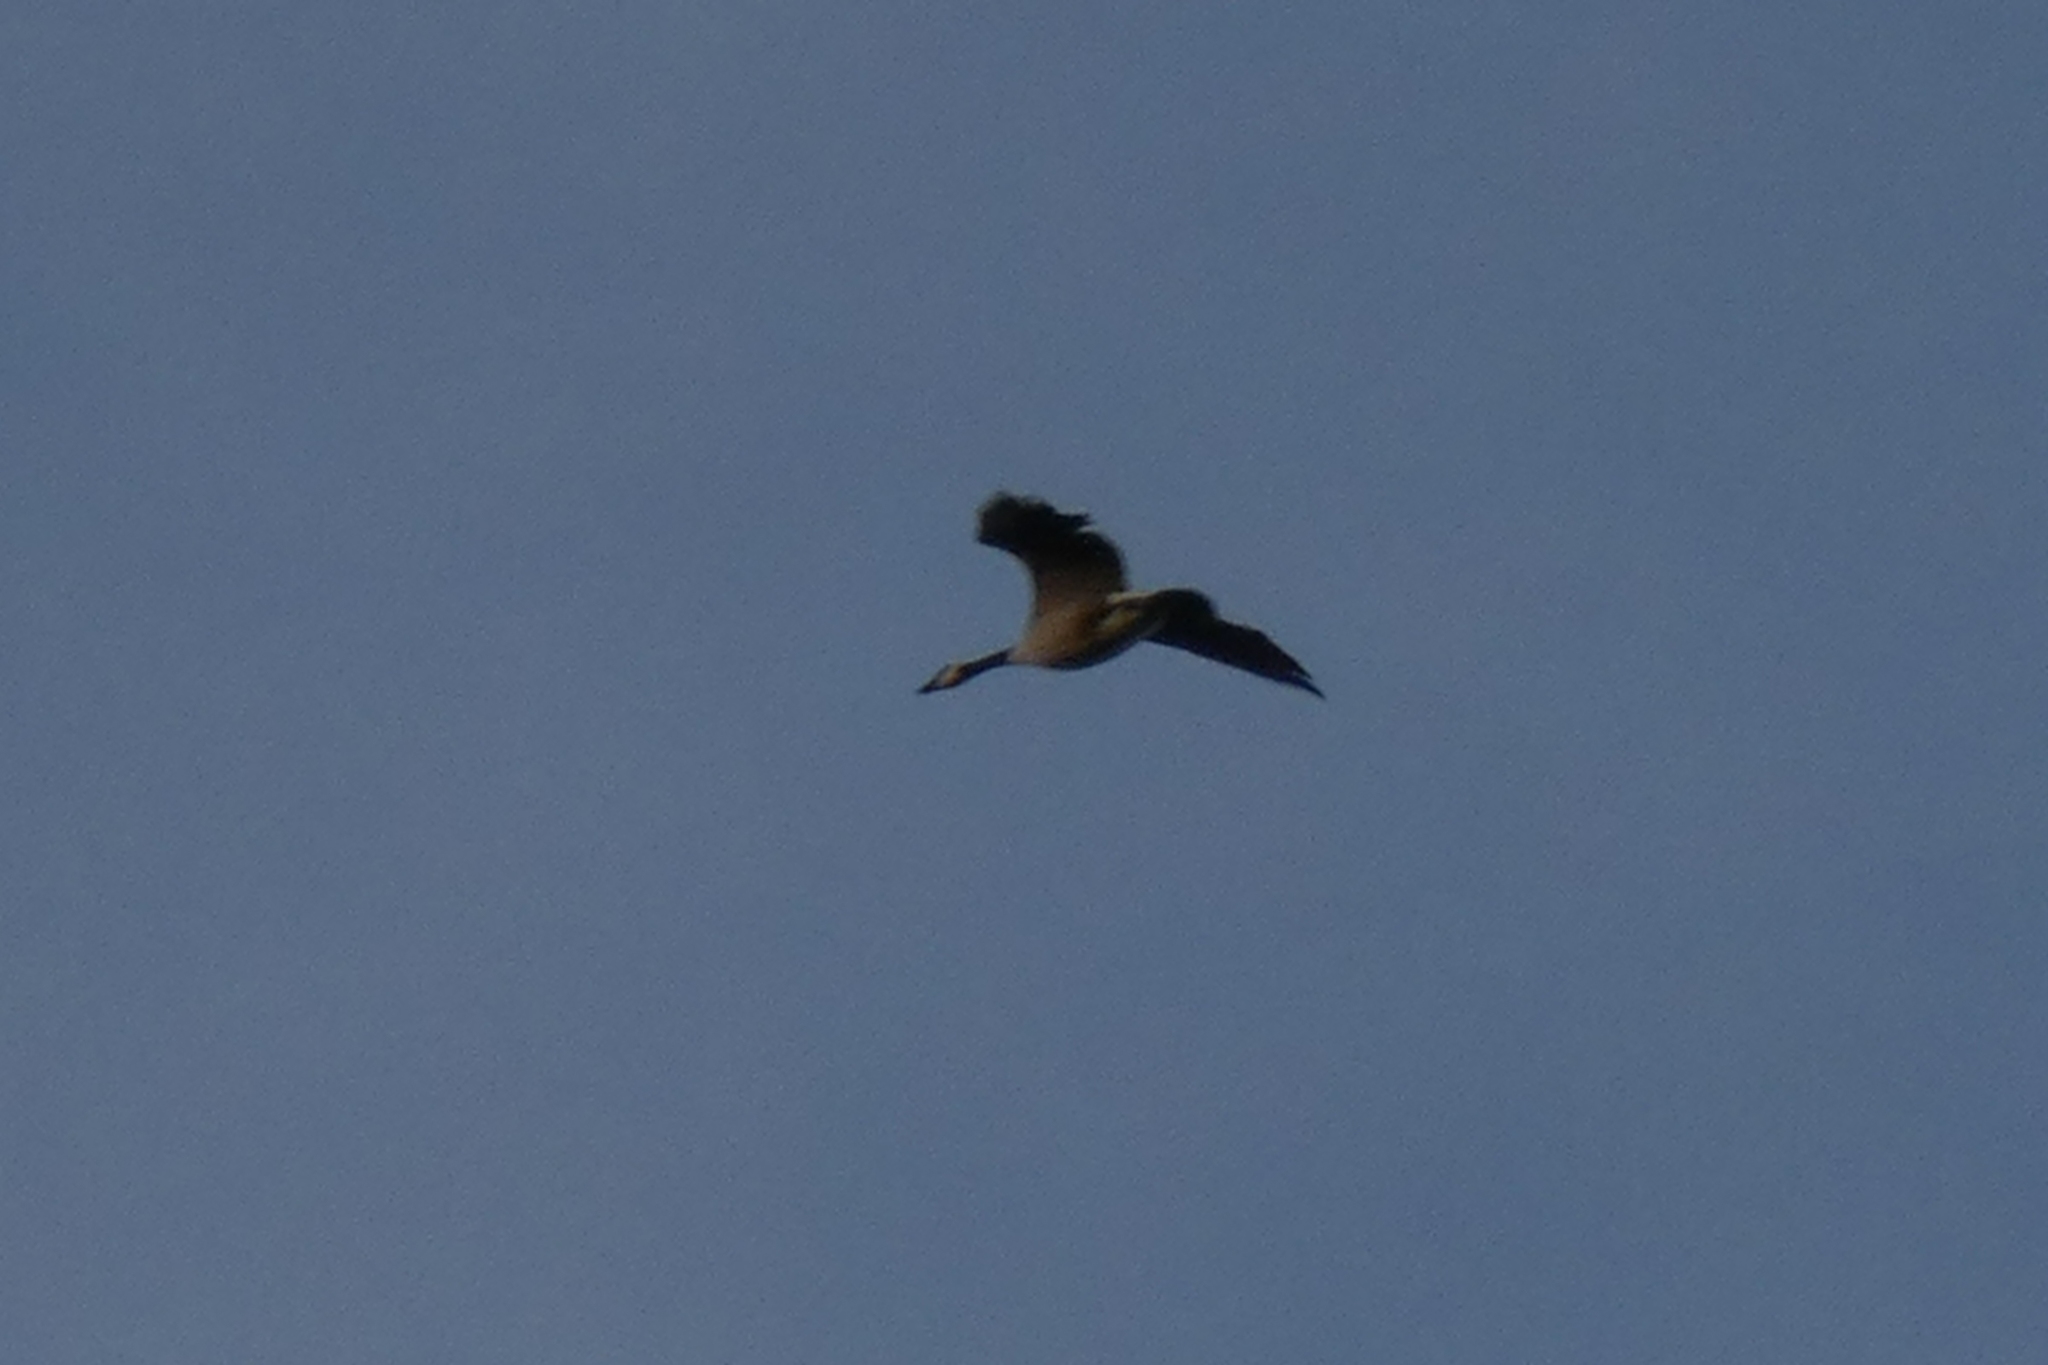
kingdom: Animalia
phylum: Chordata
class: Aves
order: Anseriformes
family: Anatidae
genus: Branta
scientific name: Branta canadensis
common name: Canada goose
